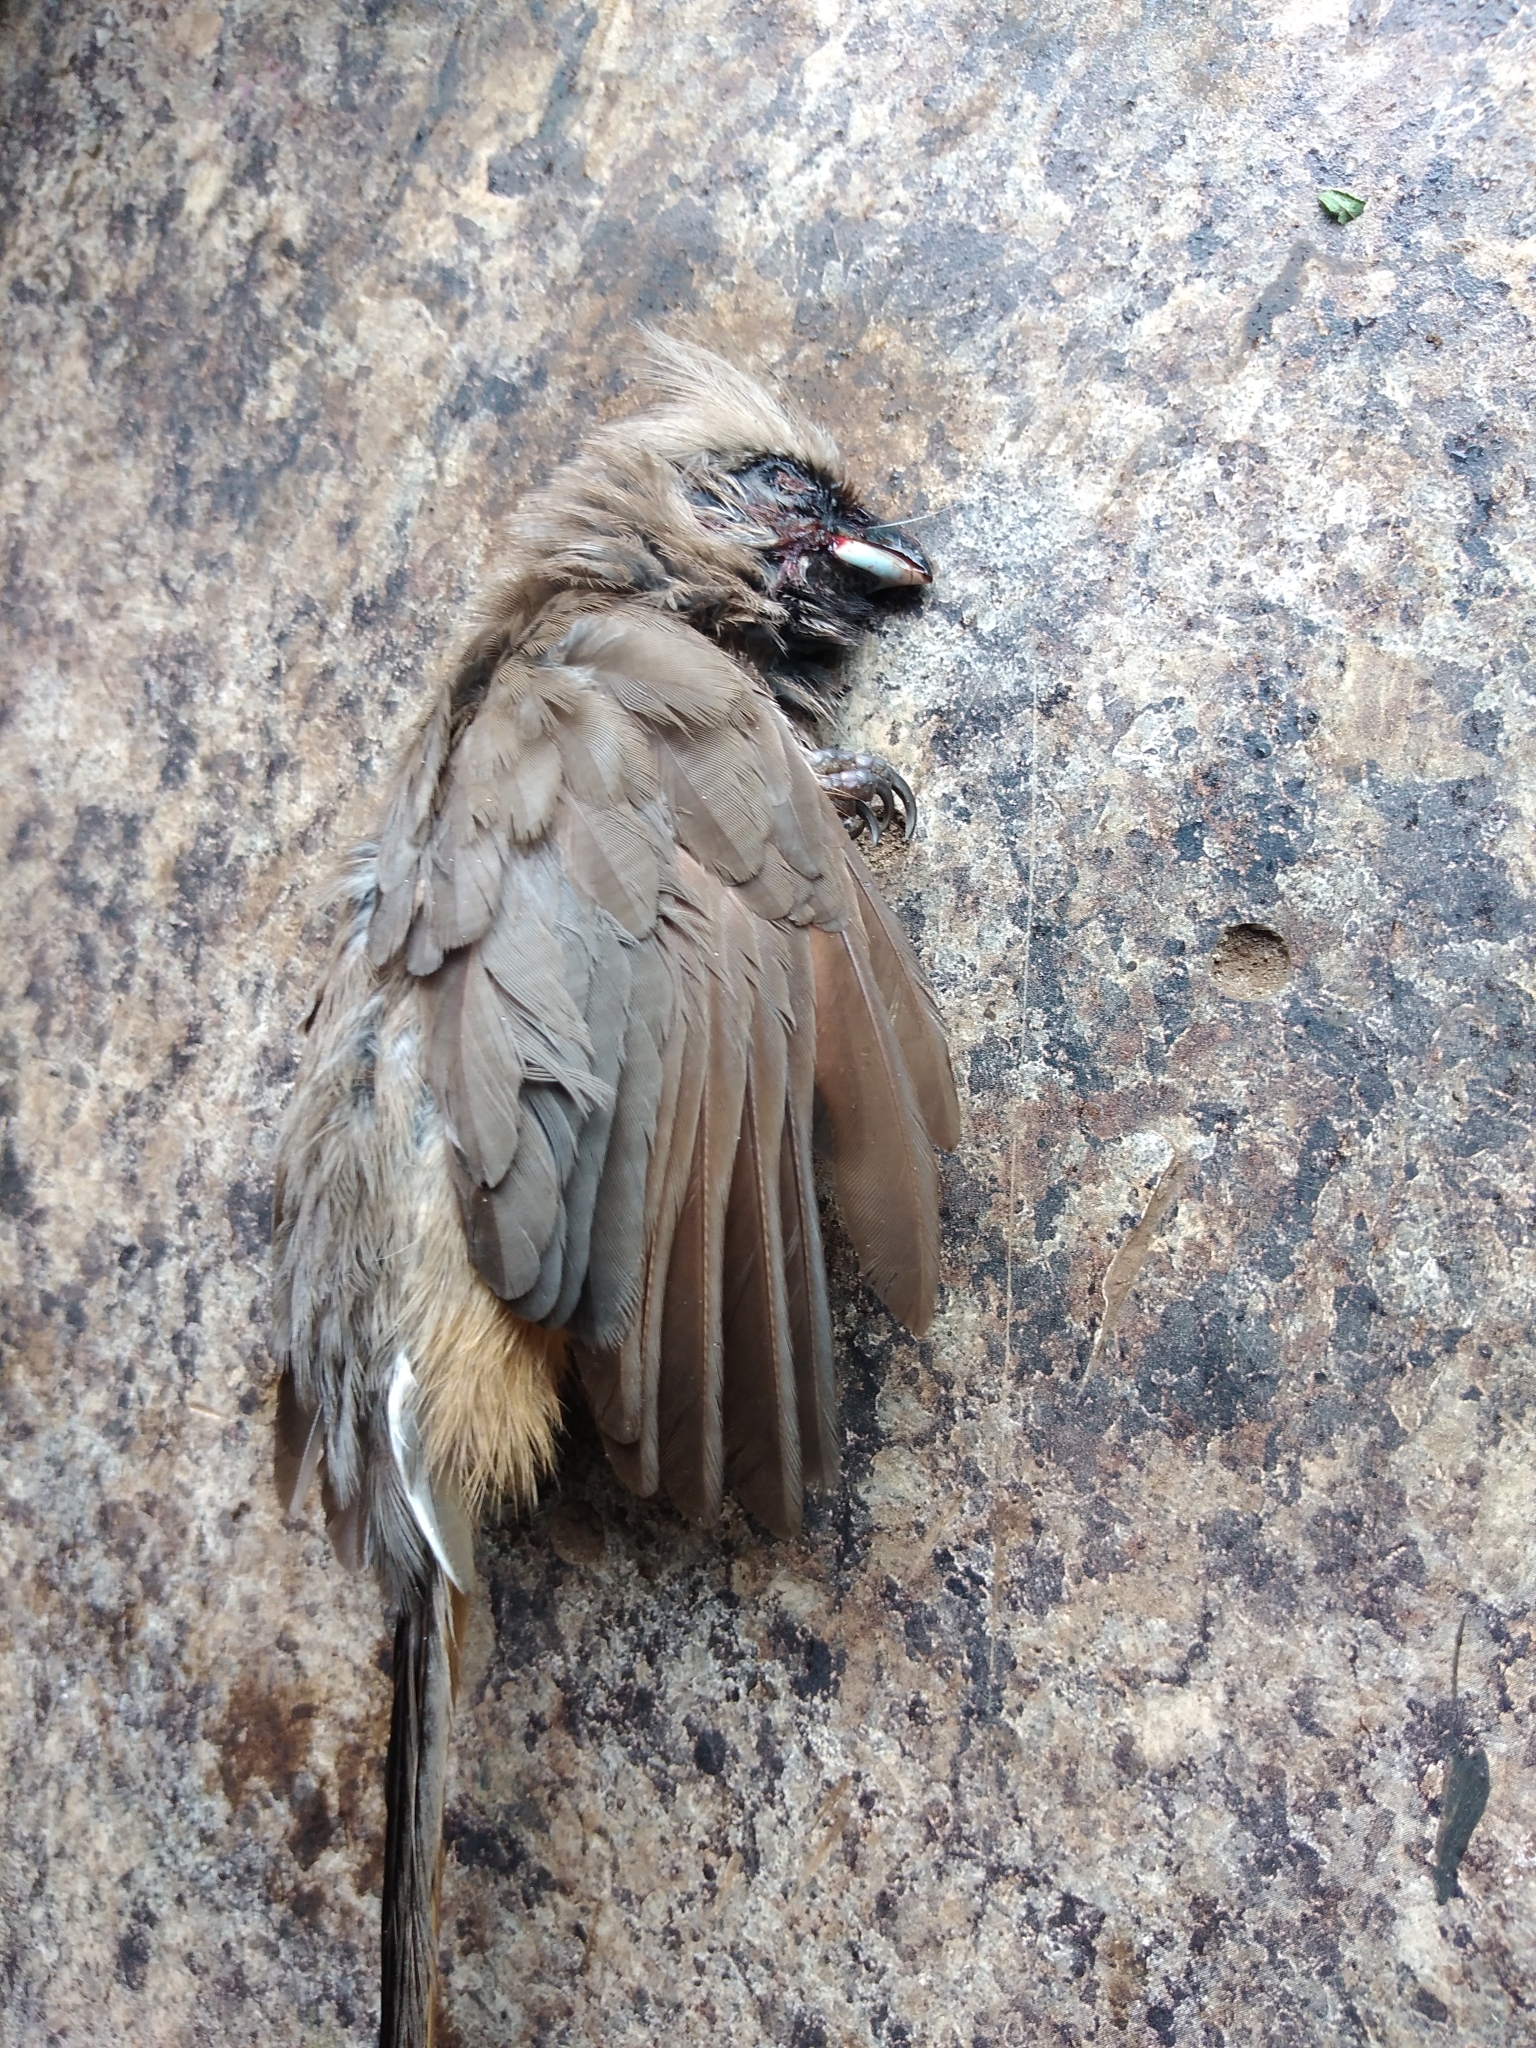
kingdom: Animalia
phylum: Chordata
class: Aves
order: Coliiformes
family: Coliidae
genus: Colius
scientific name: Colius striatus
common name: Speckled mousebird
